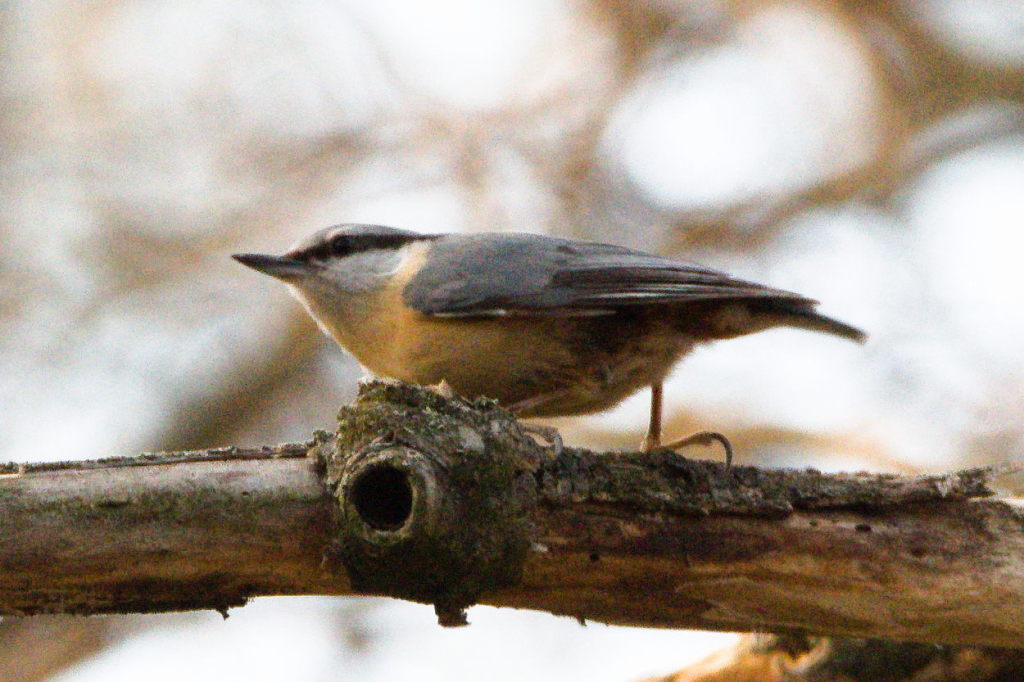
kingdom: Animalia
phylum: Chordata
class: Aves
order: Passeriformes
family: Sittidae
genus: Sitta
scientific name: Sitta europaea
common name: Eurasian nuthatch
